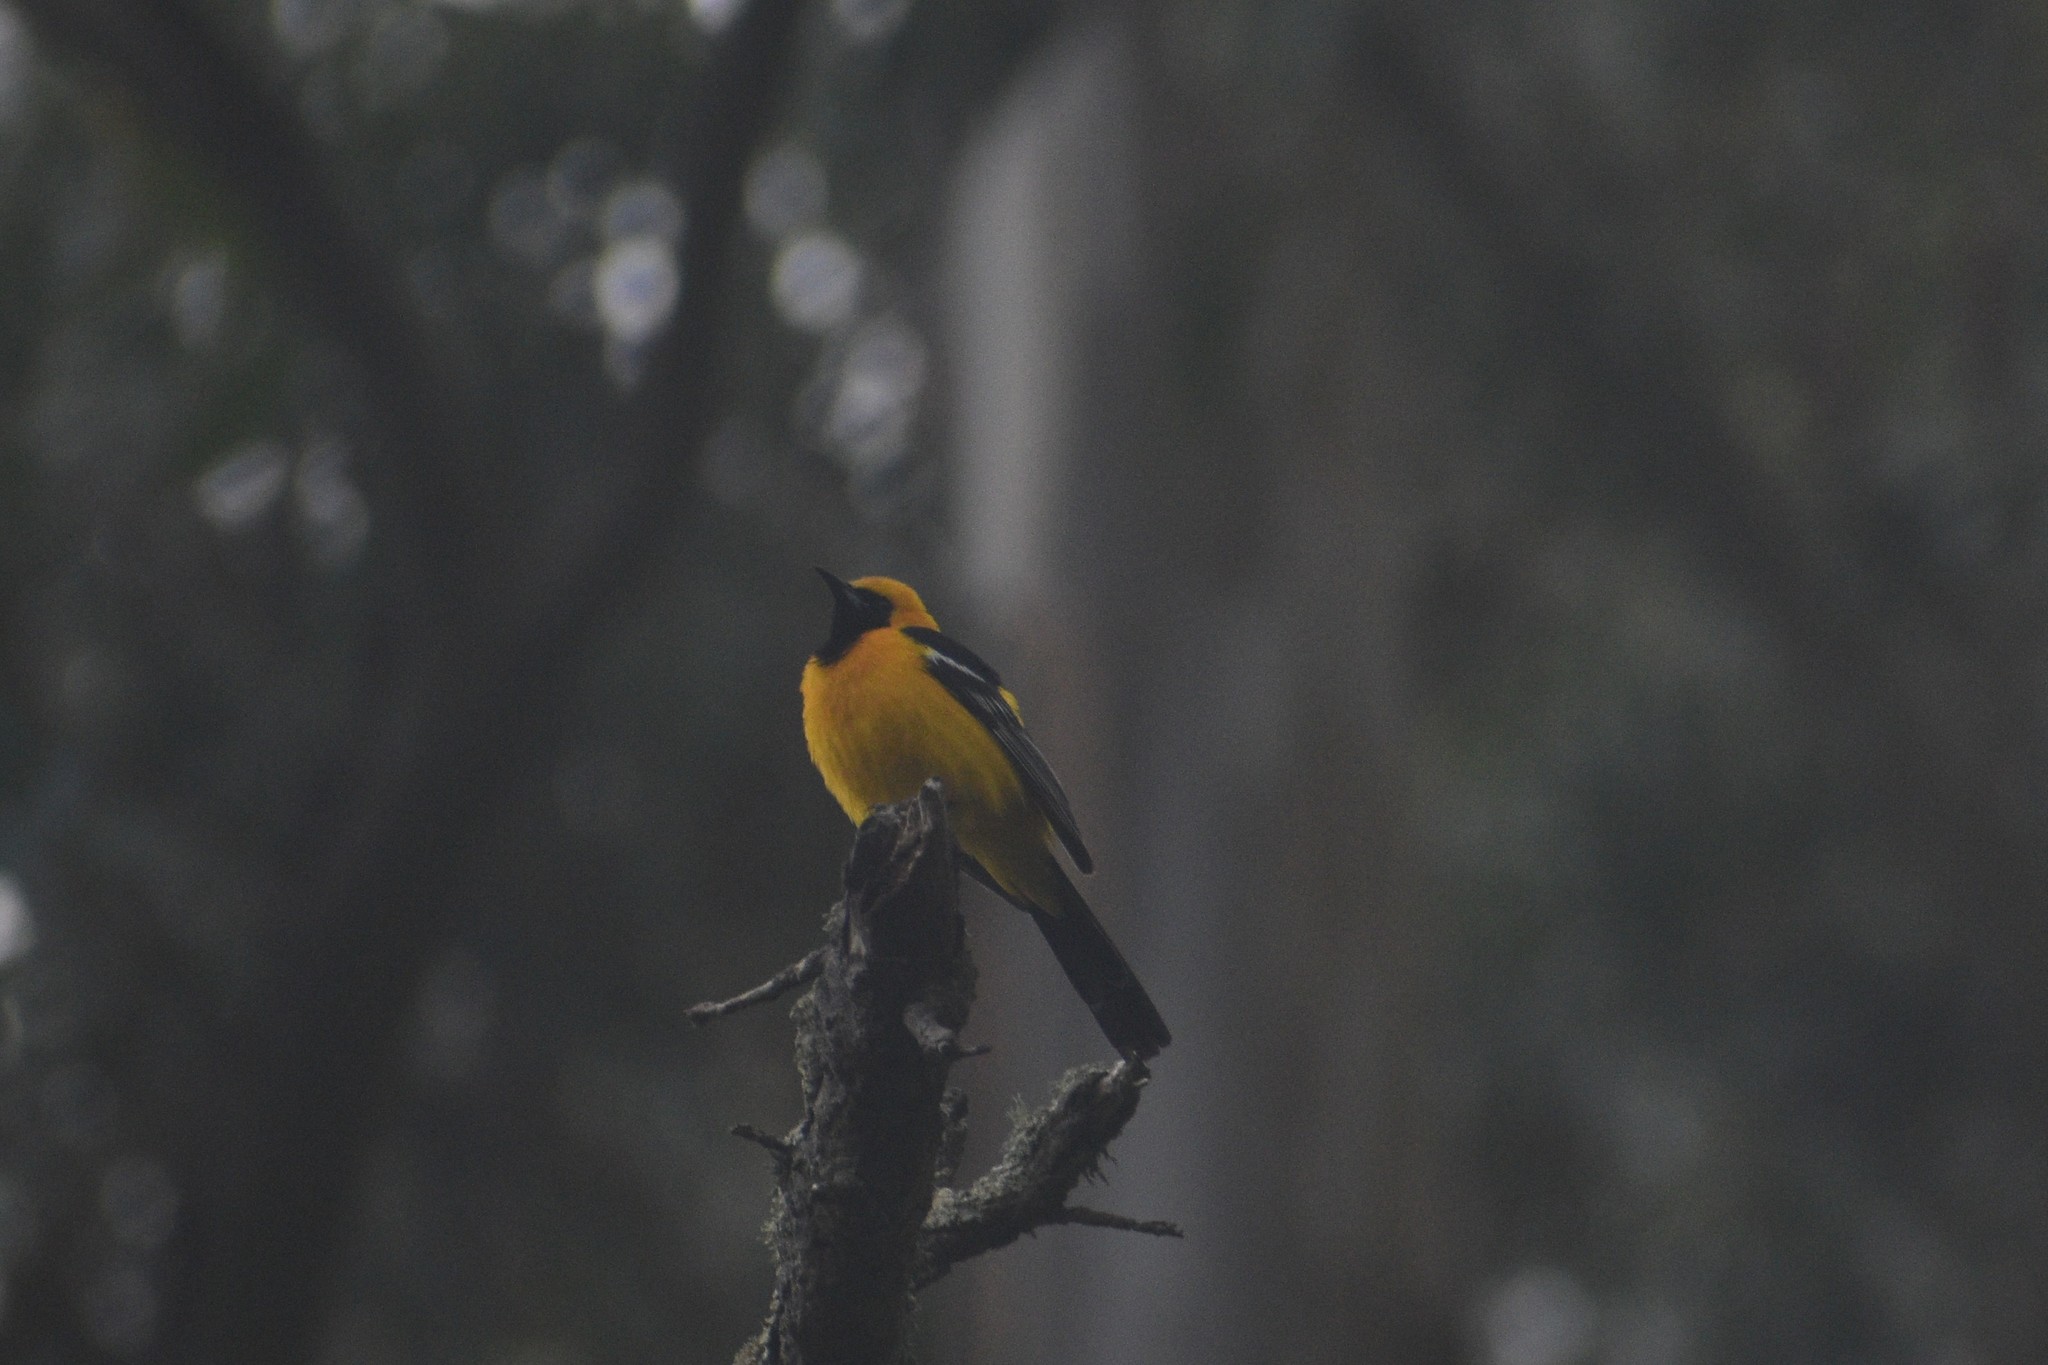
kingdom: Animalia
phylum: Chordata
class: Aves
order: Passeriformes
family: Icteridae
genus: Icterus
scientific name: Icterus cucullatus
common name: Hooded oriole
